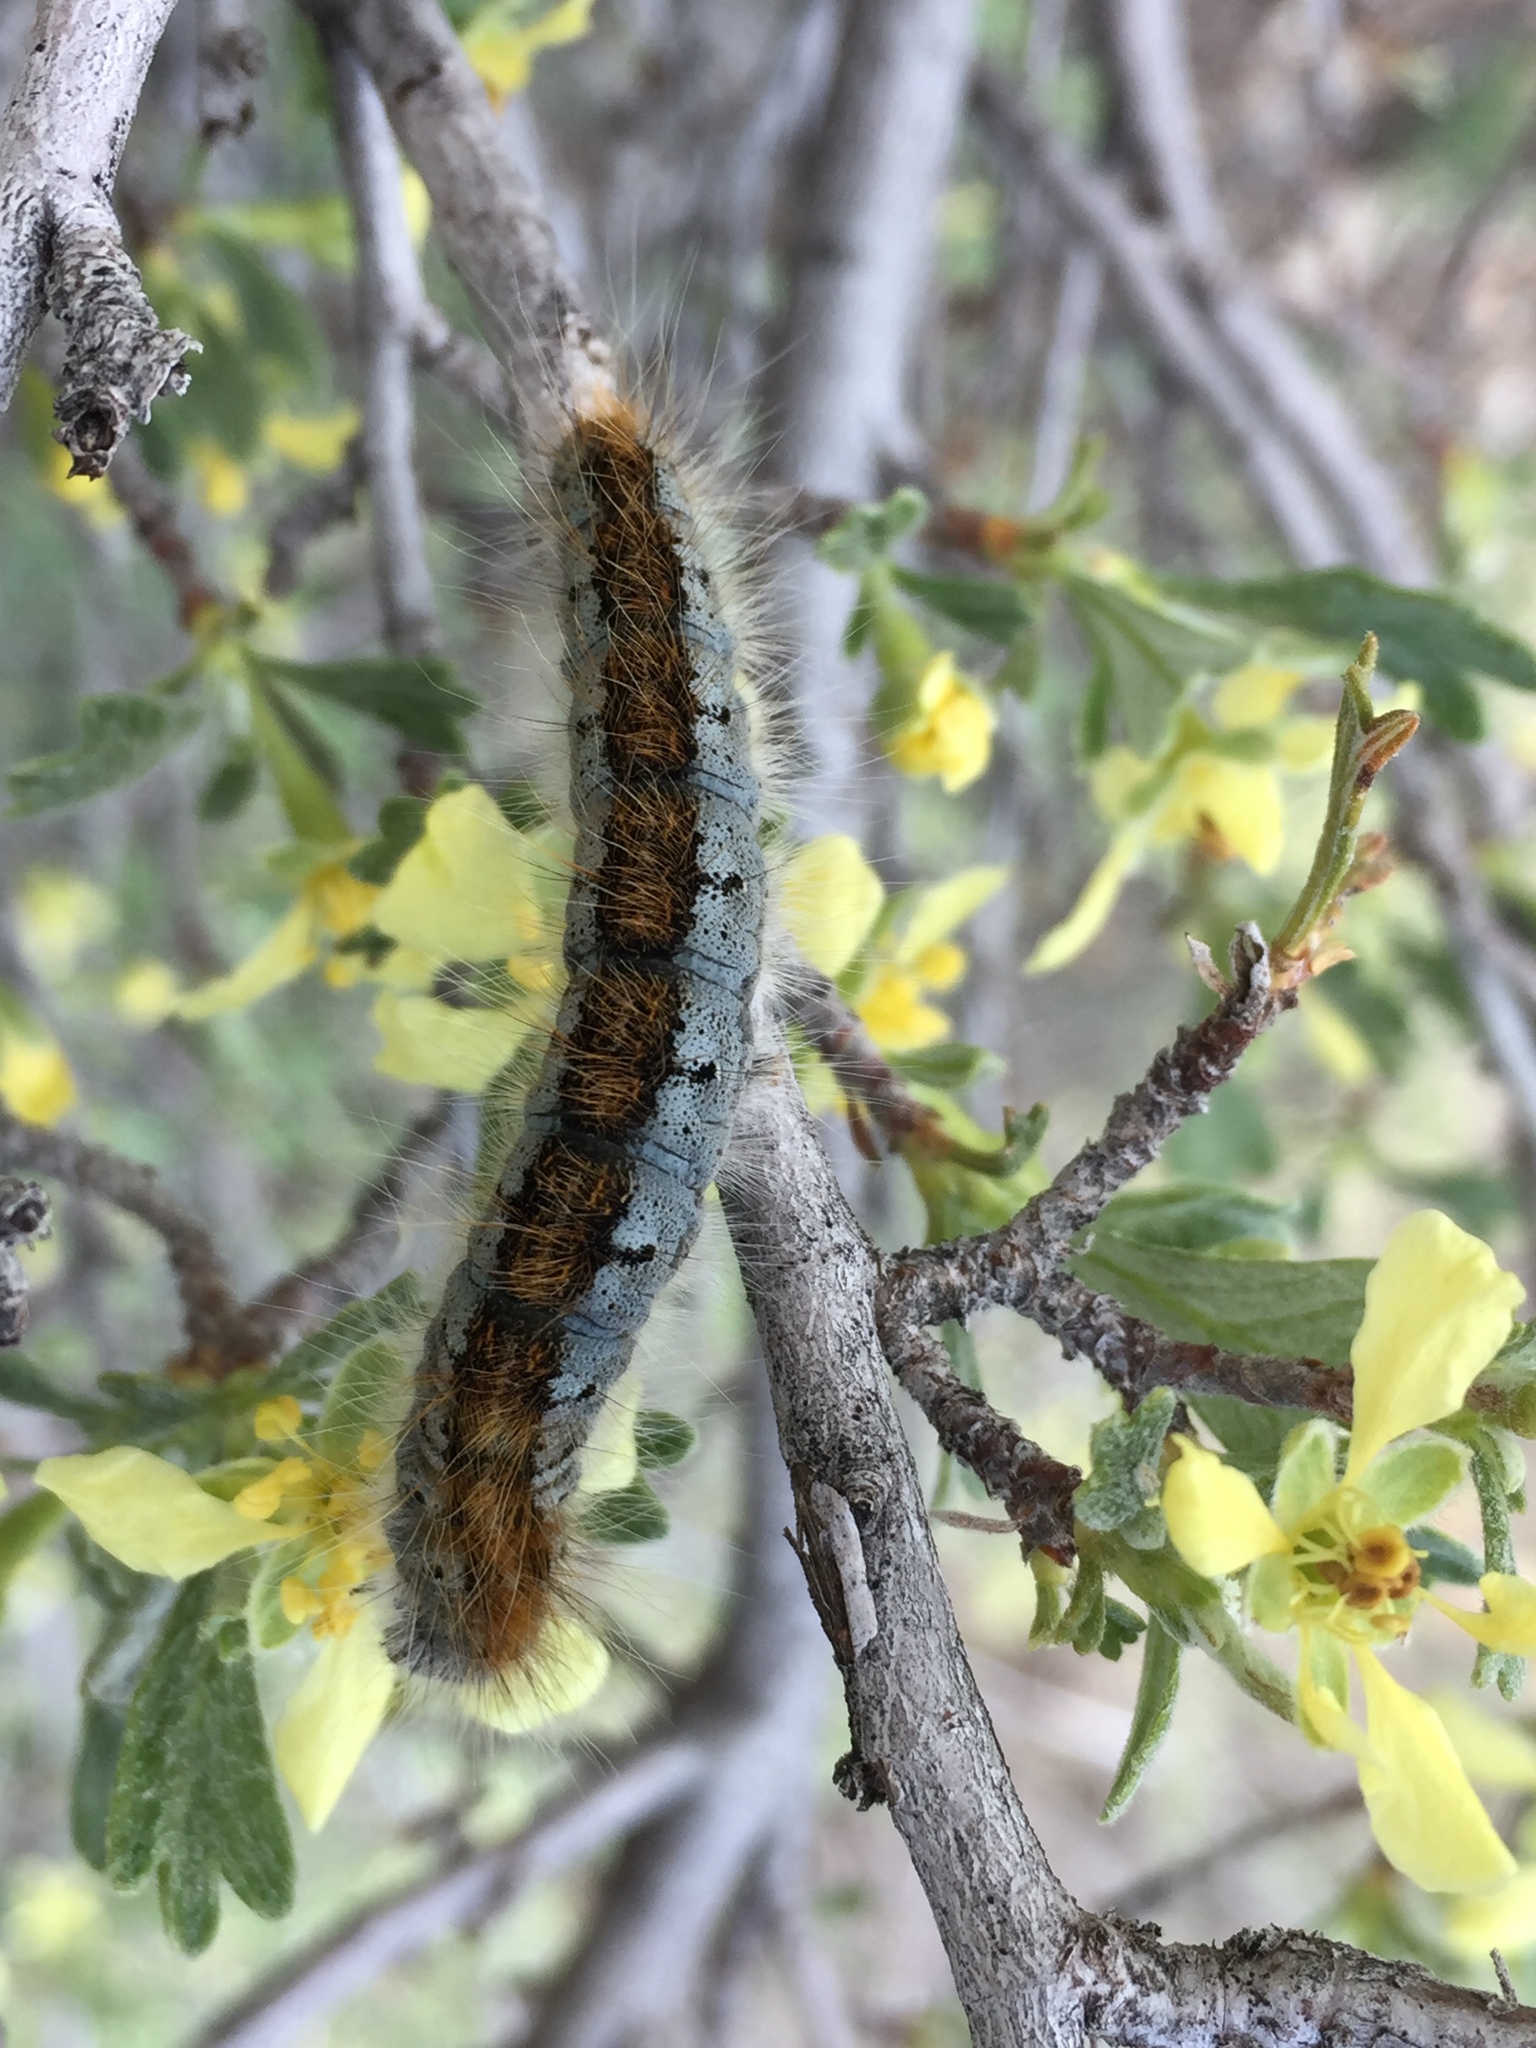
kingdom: Animalia
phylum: Arthropoda
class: Insecta
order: Lepidoptera
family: Lasiocampidae
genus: Malacosoma
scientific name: Malacosoma incurva
